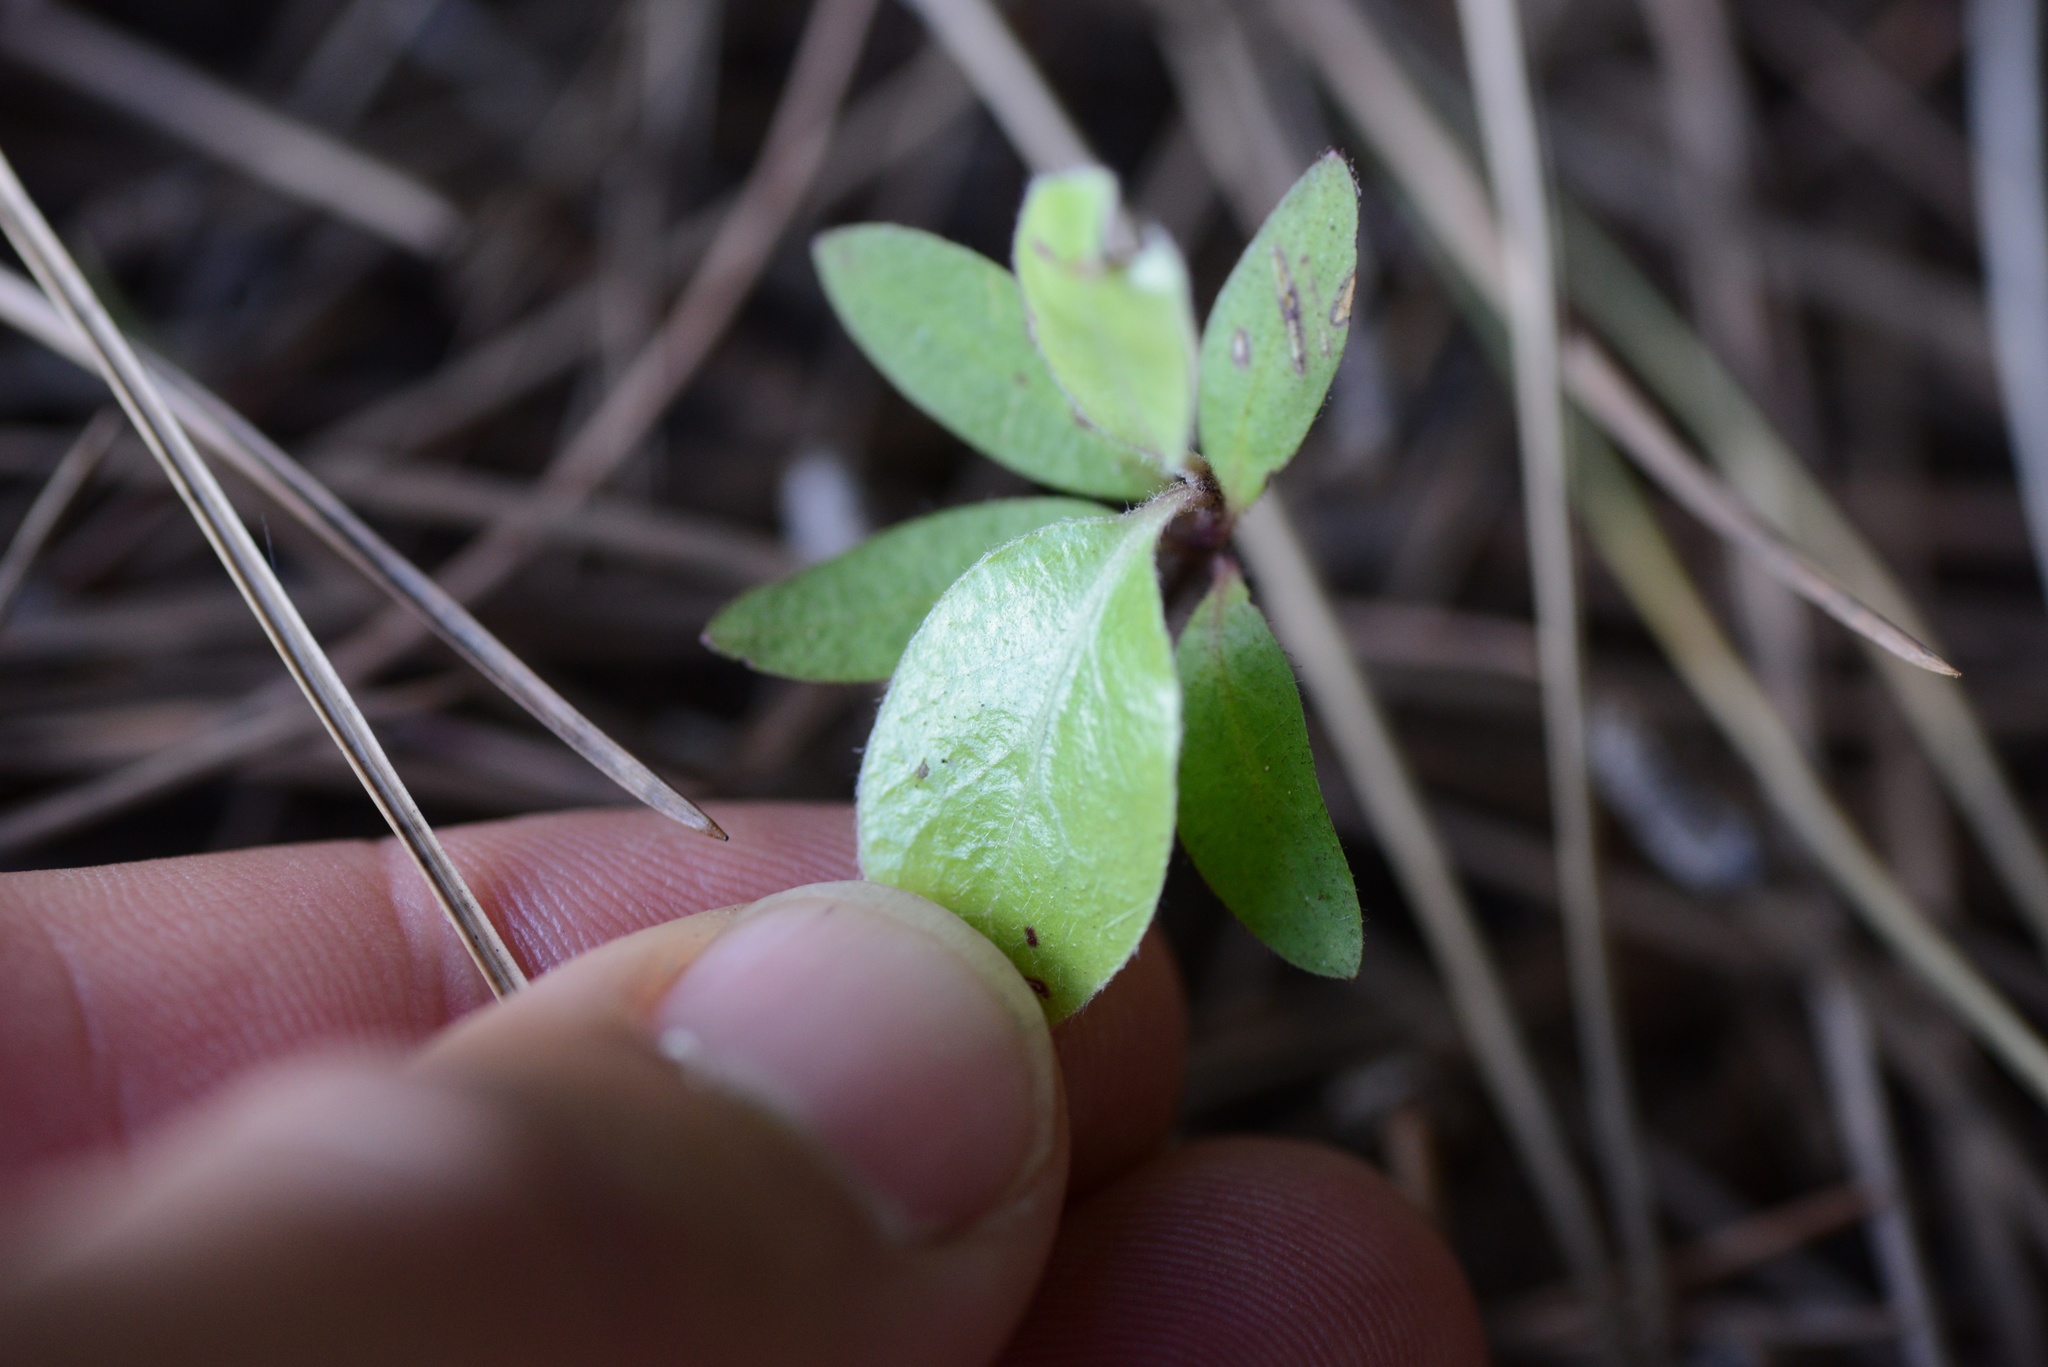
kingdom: Plantae
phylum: Tracheophyta
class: Magnoliopsida
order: Apiales
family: Pittosporaceae
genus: Pittosporum
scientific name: Pittosporum tenuifolium
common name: Kohuhu
